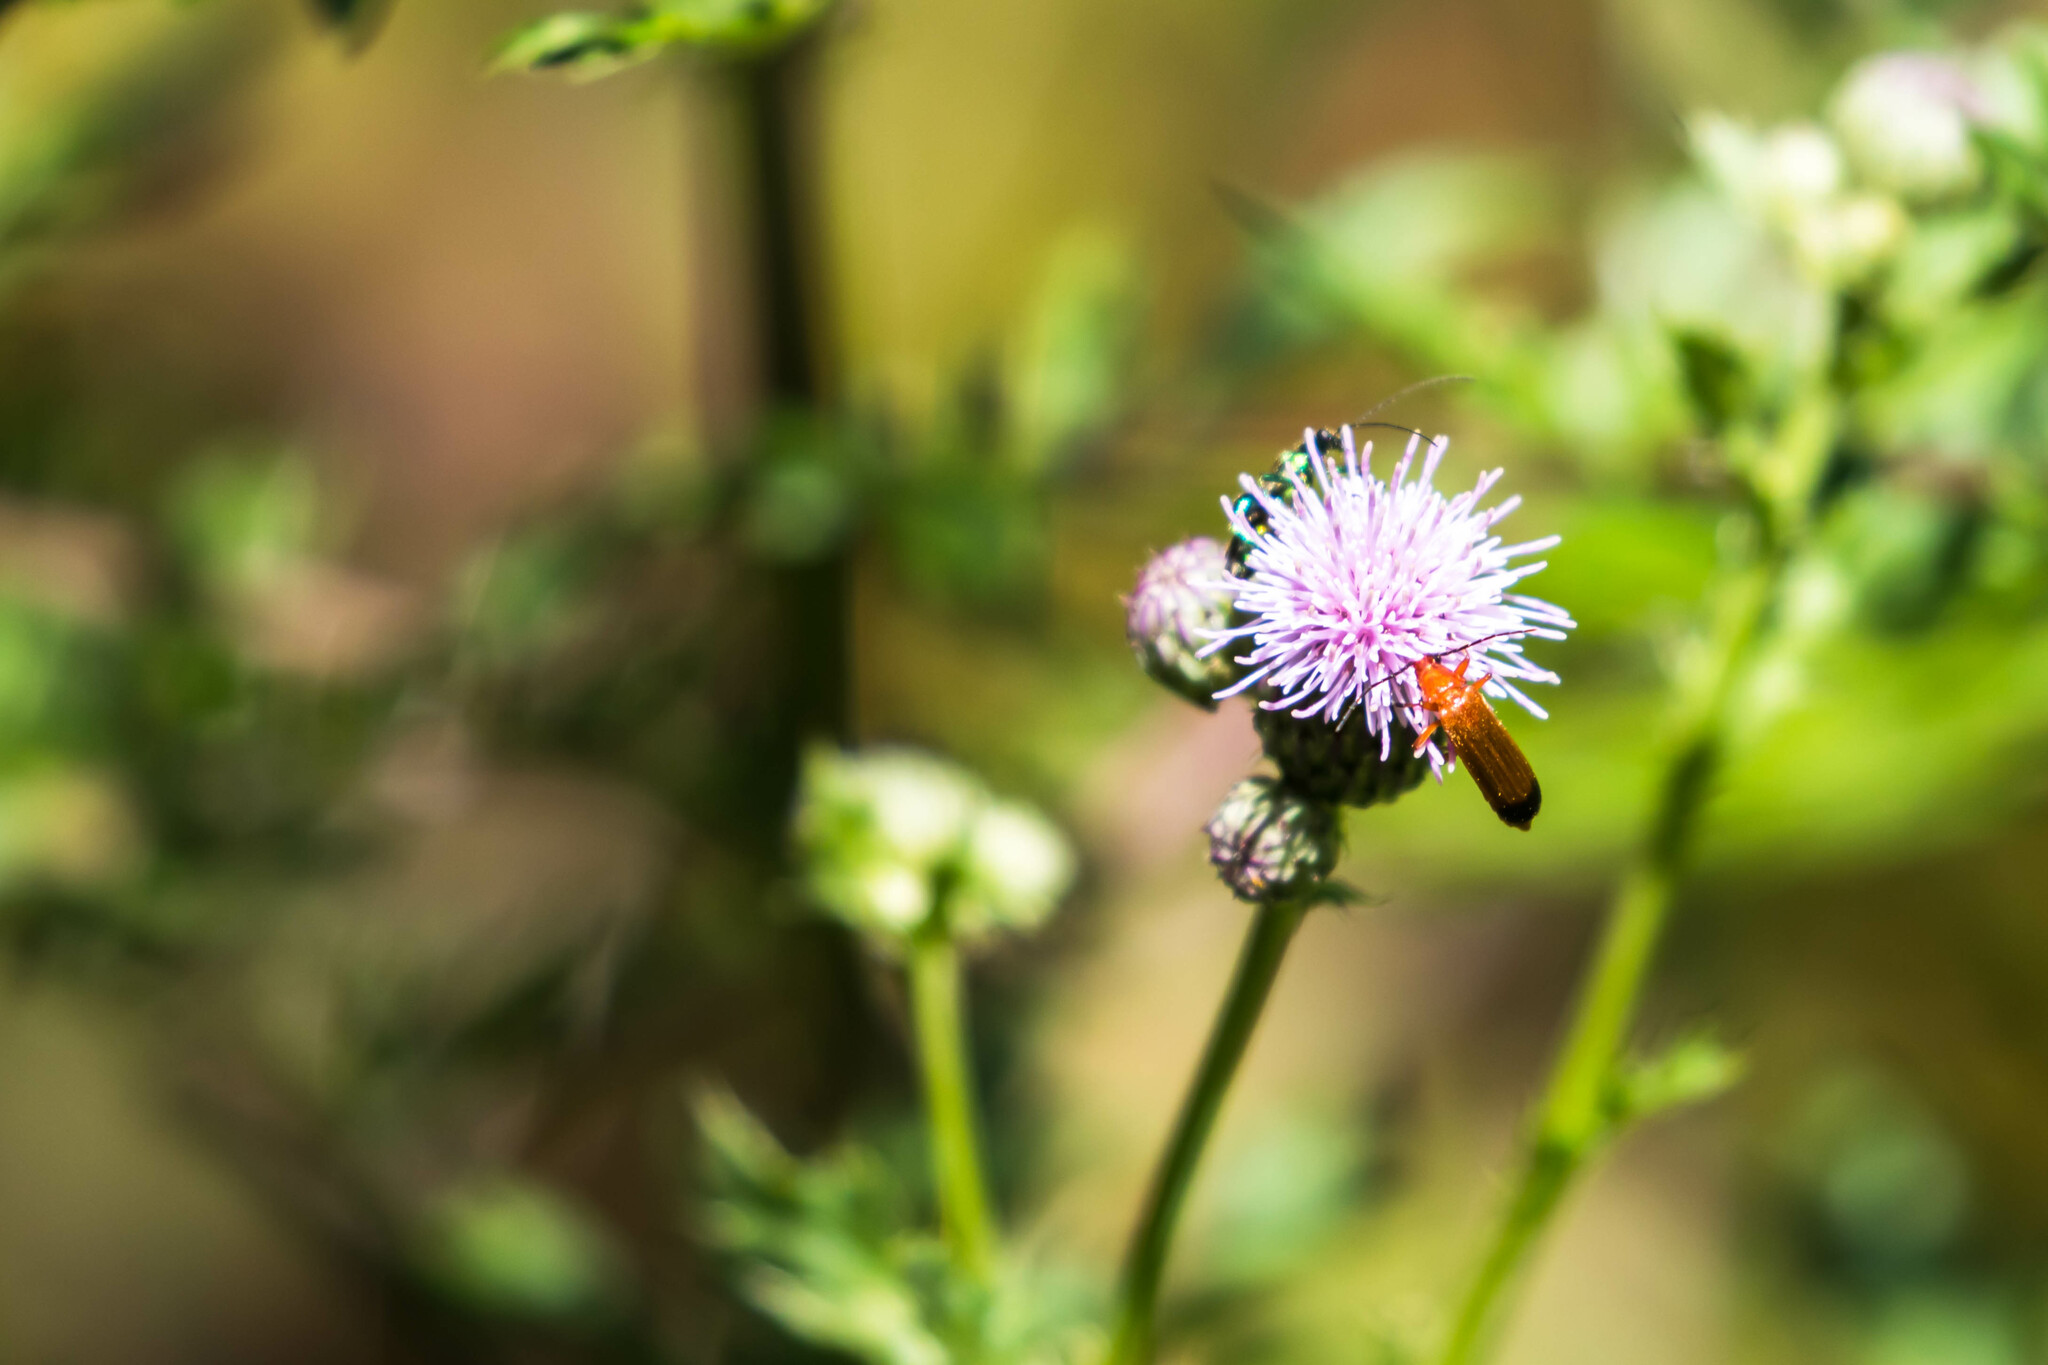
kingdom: Animalia
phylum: Arthropoda
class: Insecta
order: Coleoptera
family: Cantharidae
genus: Rhagonycha
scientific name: Rhagonycha fulva
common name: Common red soldier beetle
